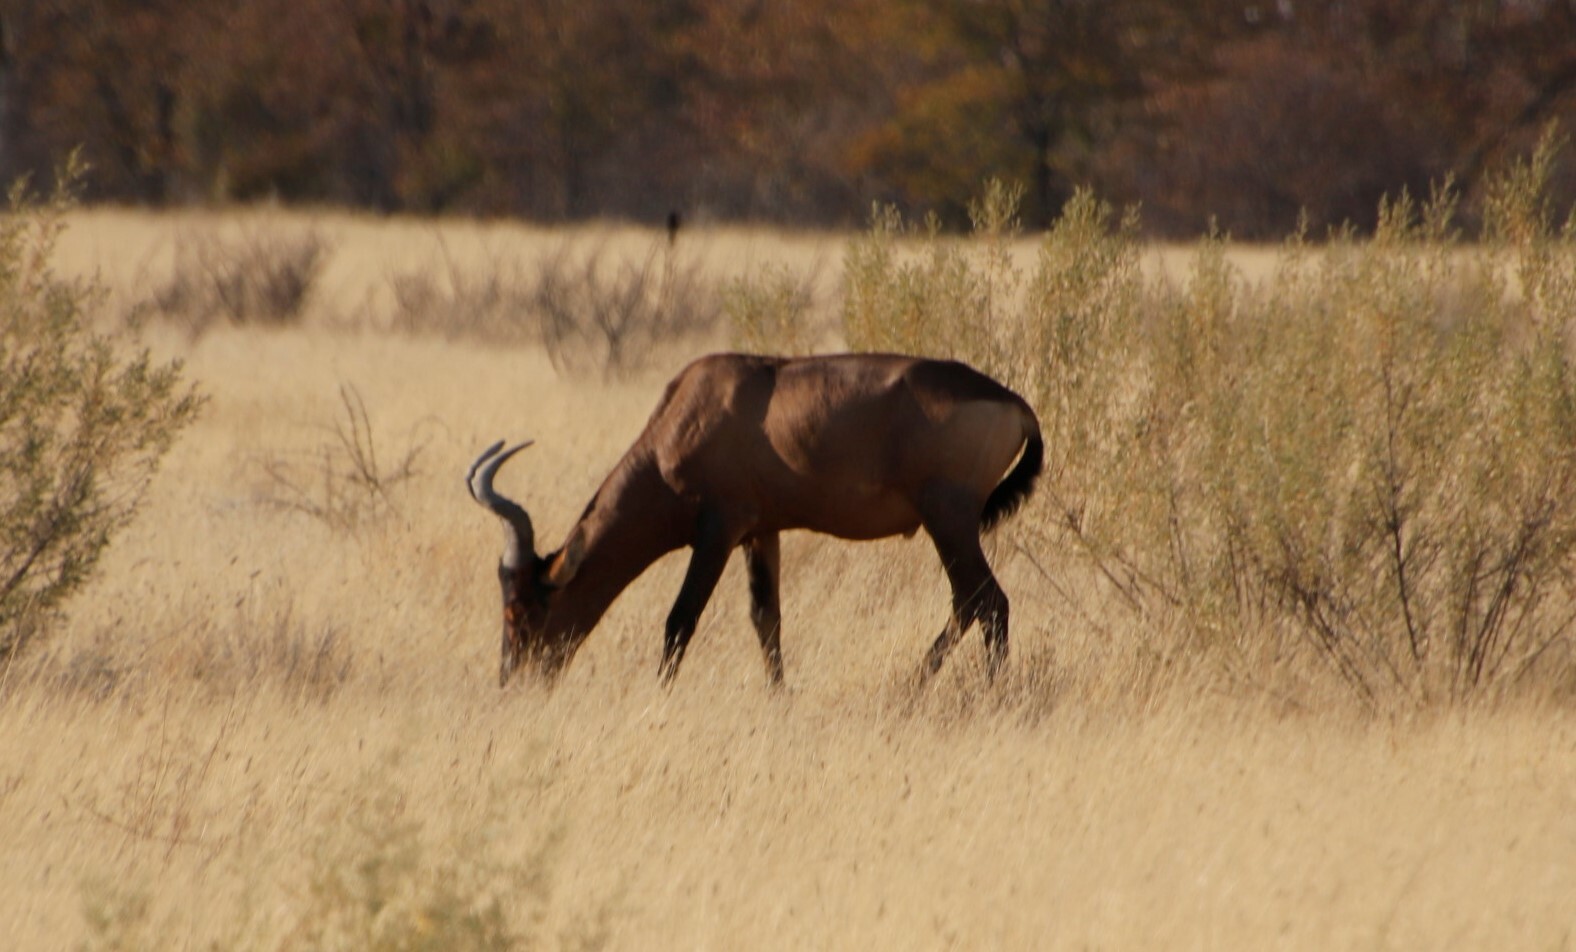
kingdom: Animalia
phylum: Chordata
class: Mammalia
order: Artiodactyla
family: Bovidae
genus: Alcelaphus
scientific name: Alcelaphus caama
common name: Red hartebeest
